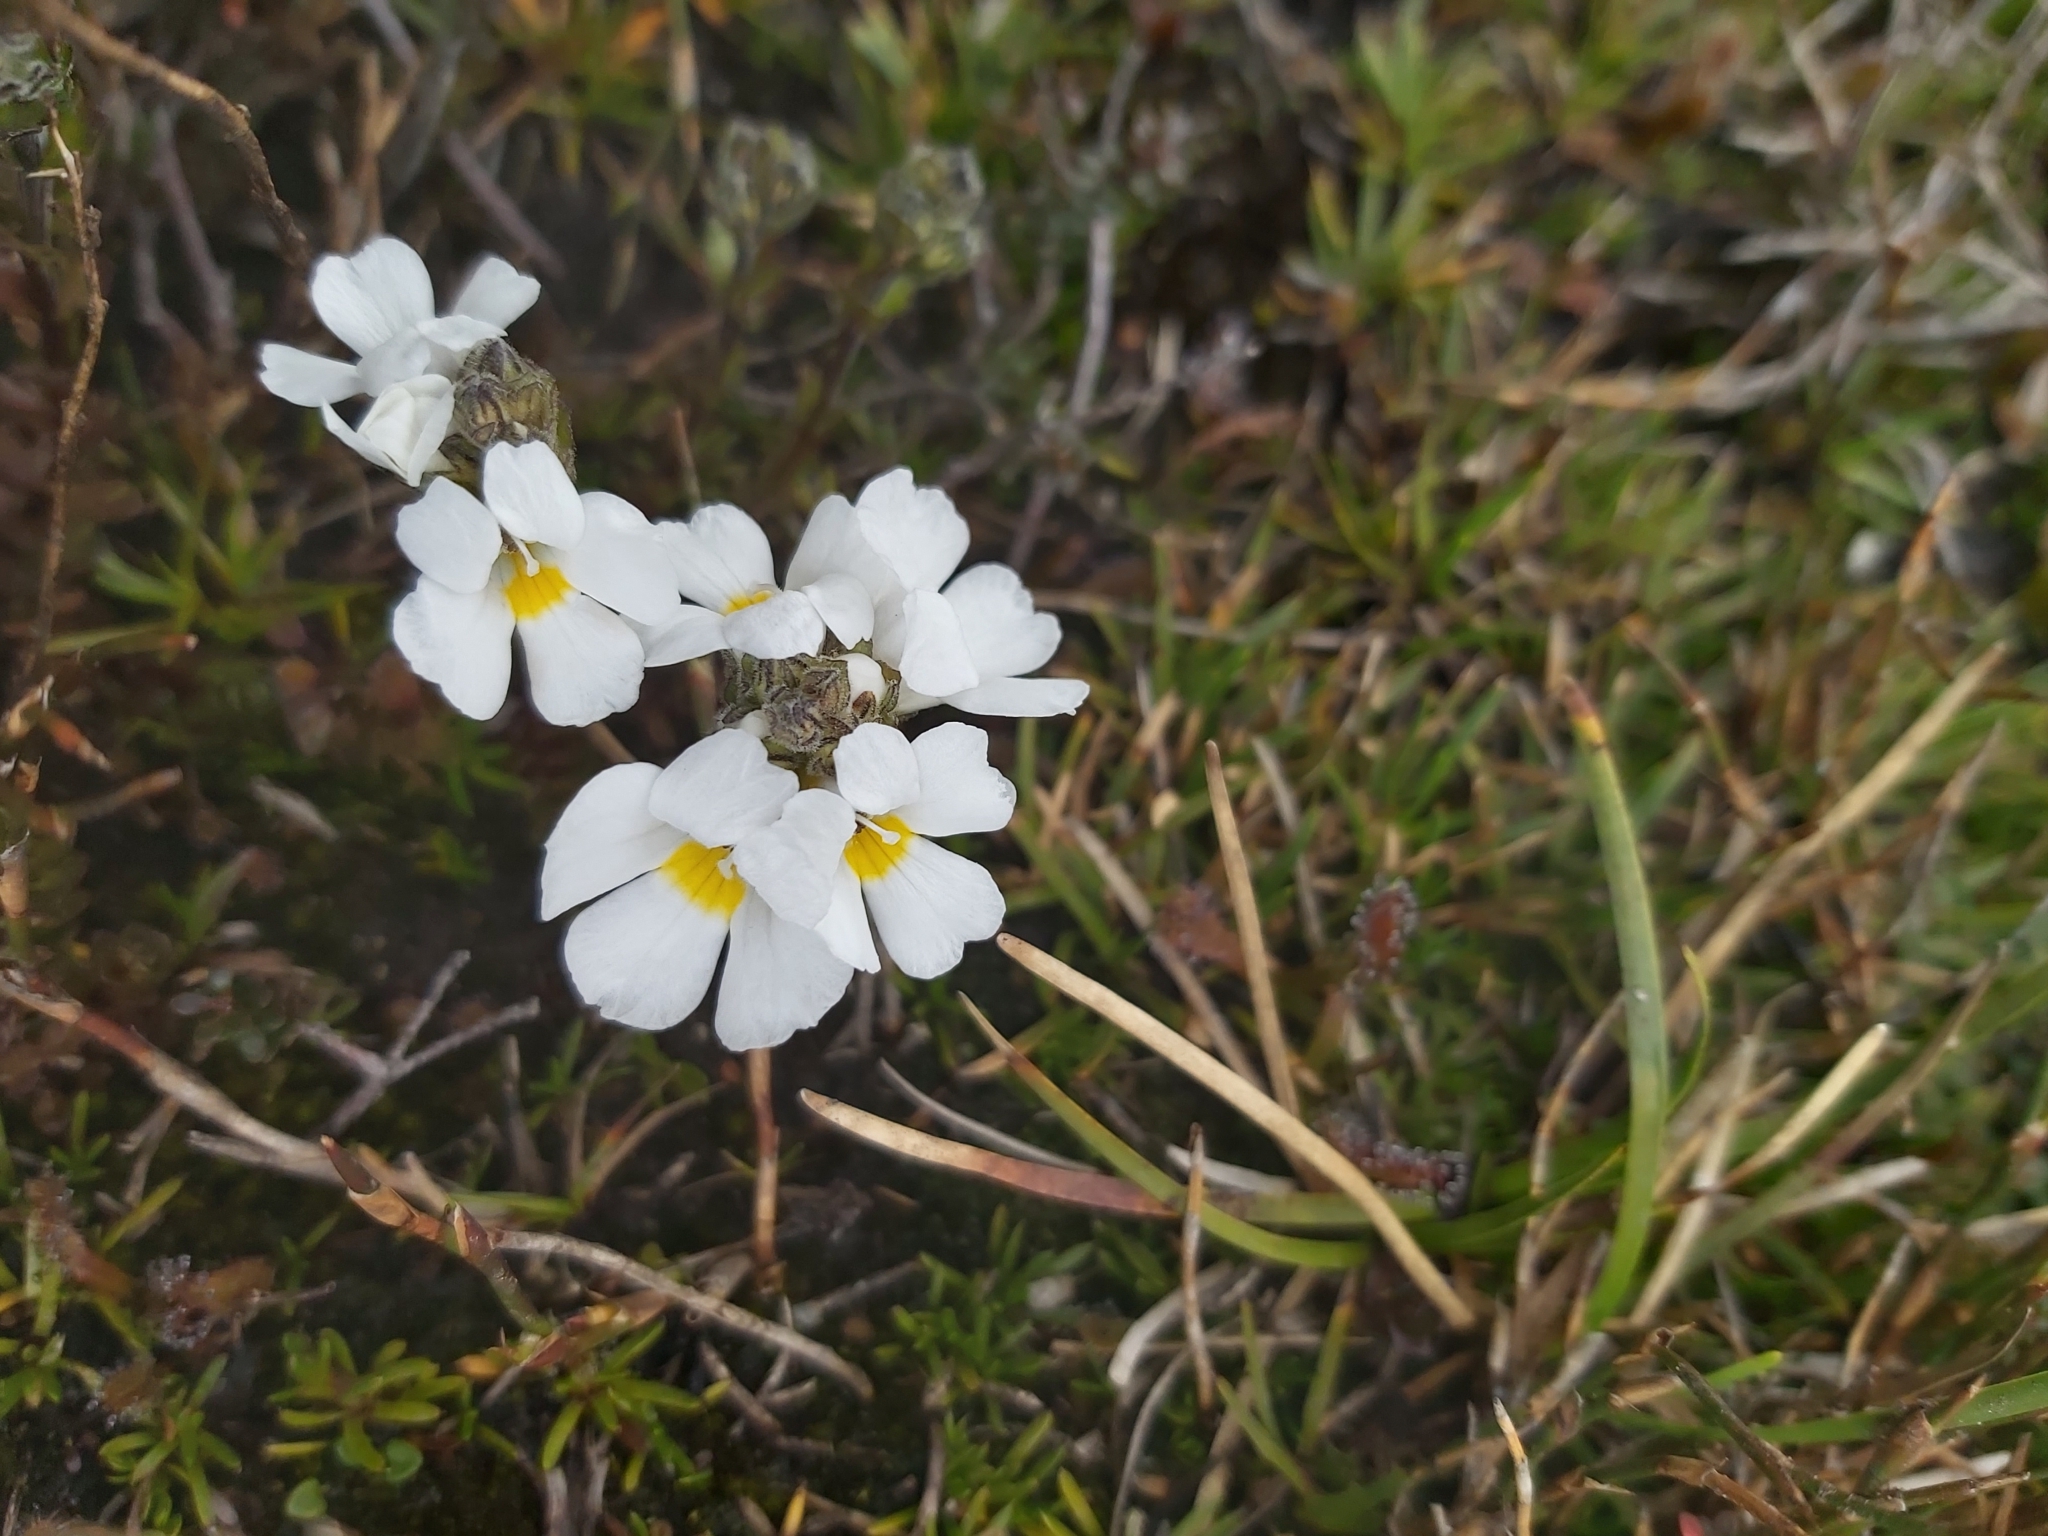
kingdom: Plantae
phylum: Tracheophyta
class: Magnoliopsida
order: Lamiales
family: Orobanchaceae
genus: Euphrasia
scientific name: Euphrasia collina
